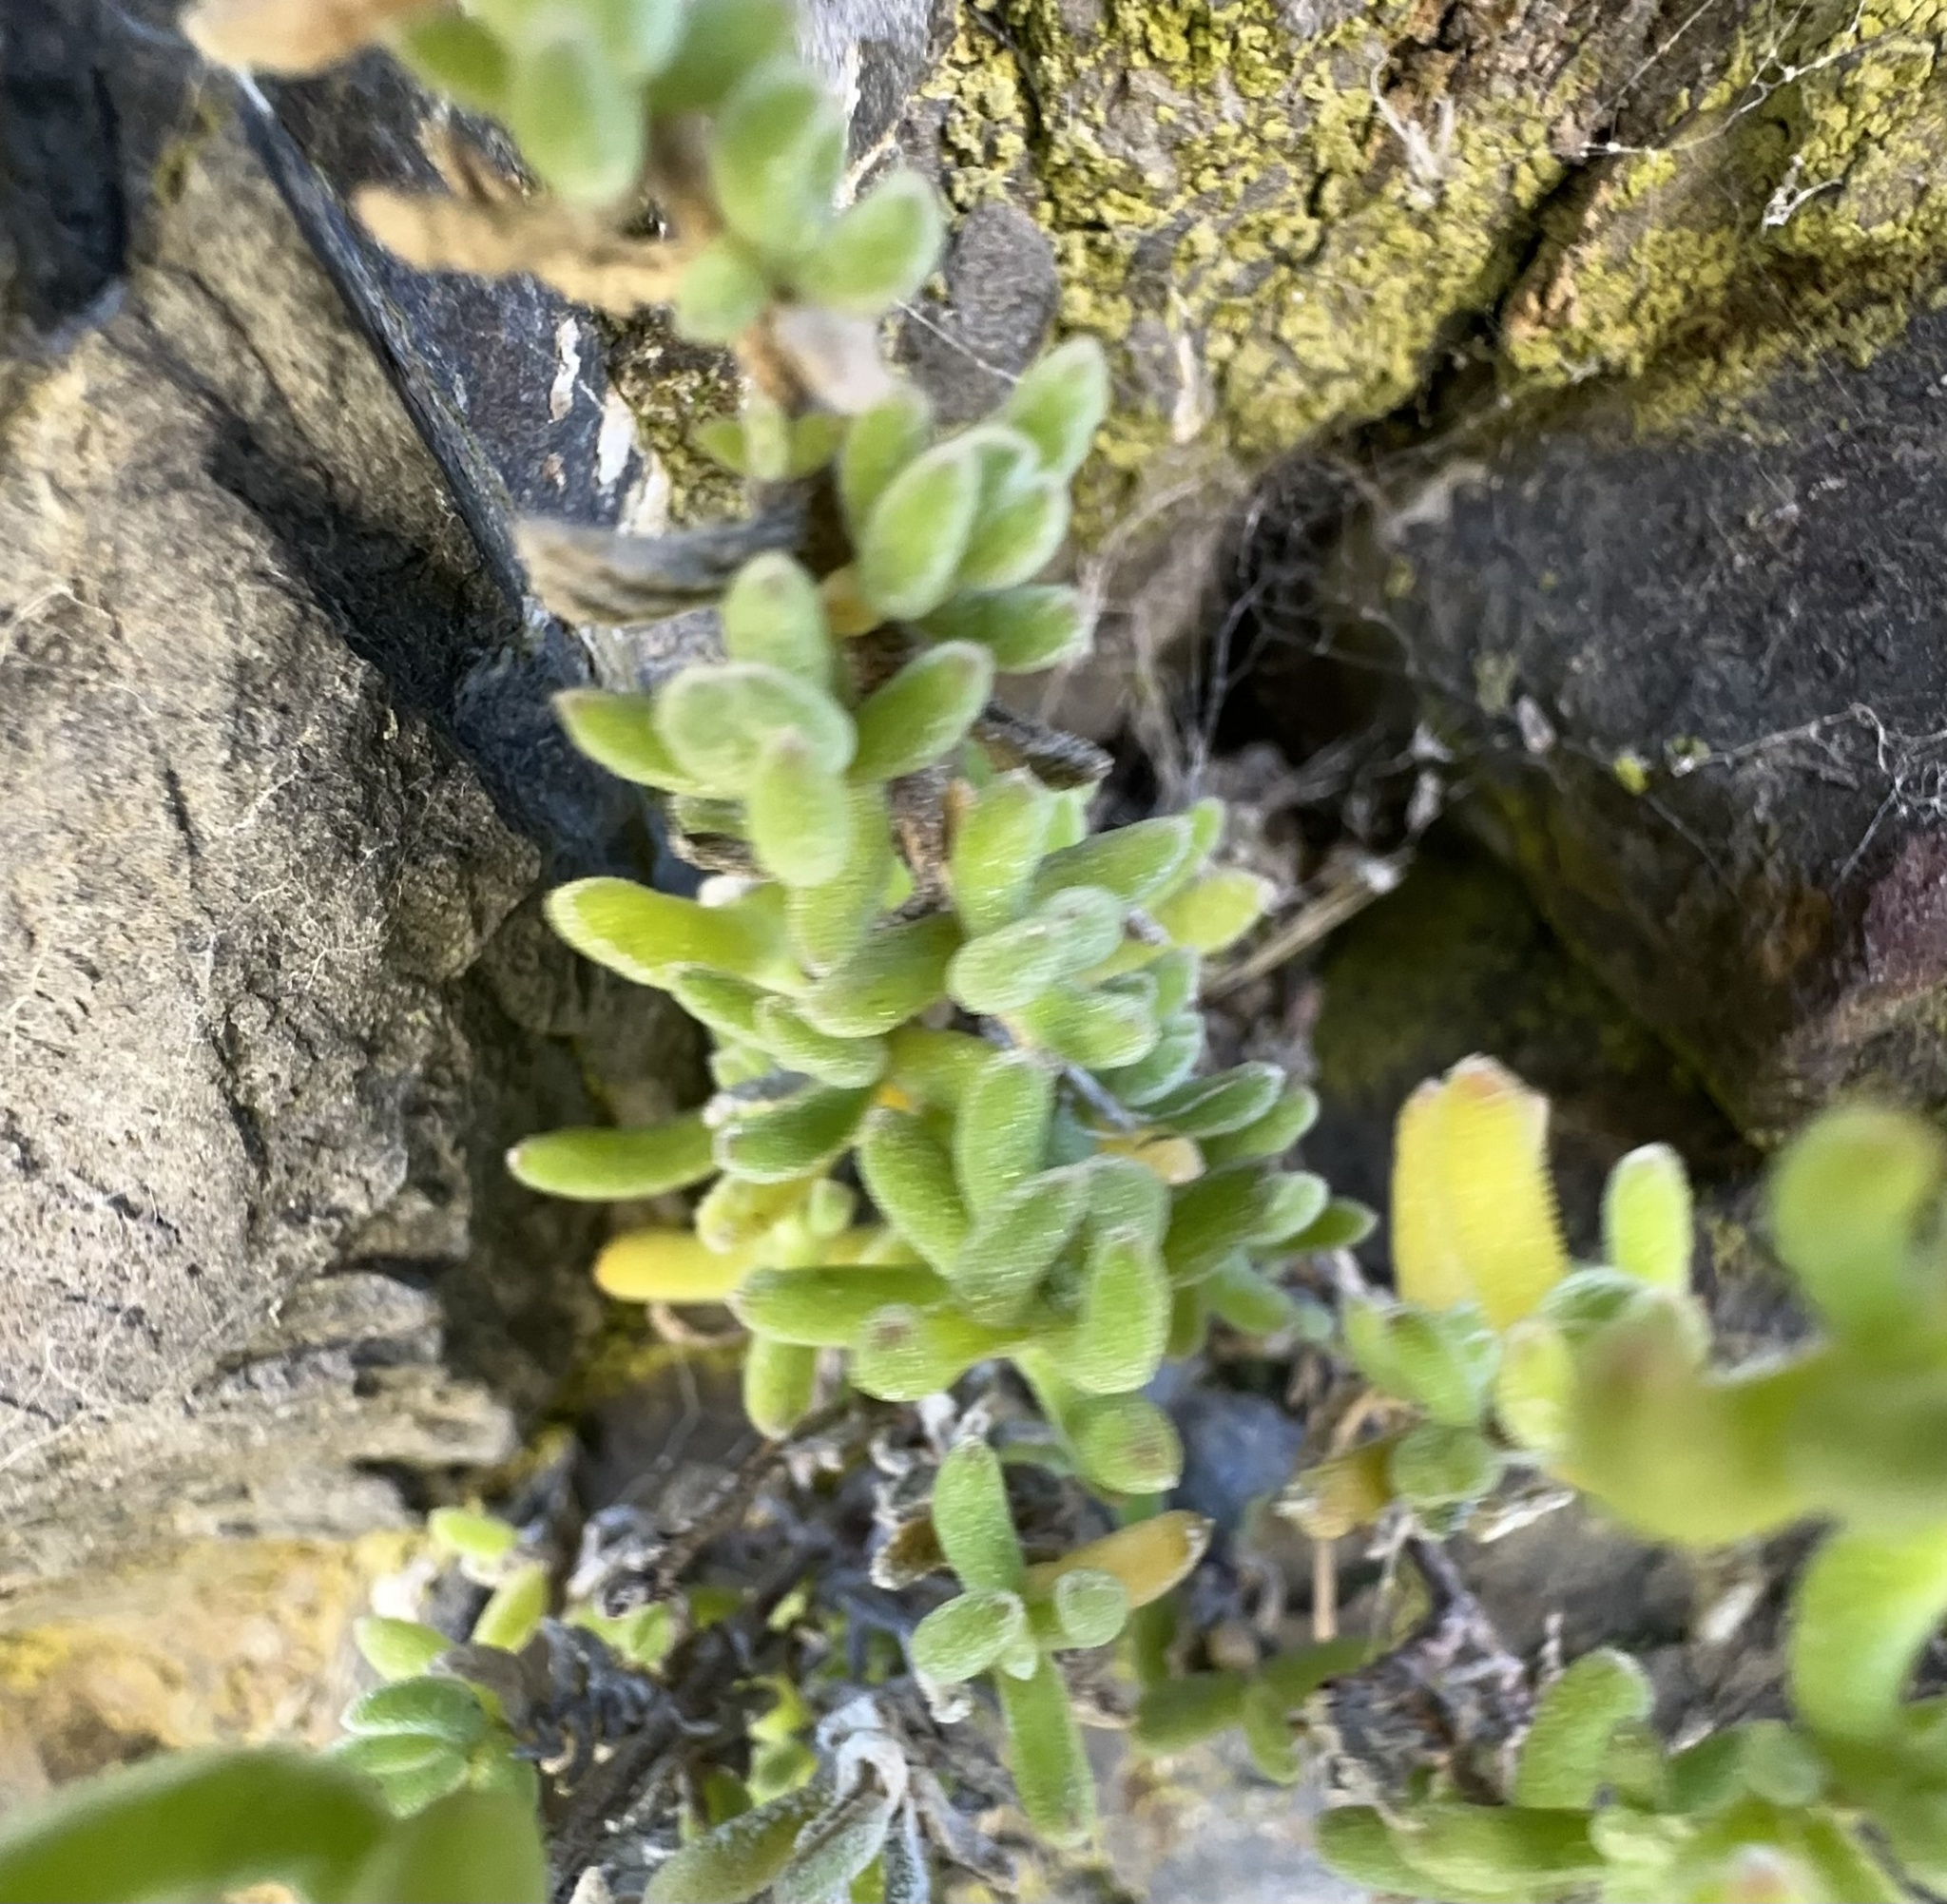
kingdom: Plantae
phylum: Tracheophyta
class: Magnoliopsida
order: Caryophyllales
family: Aizoaceae
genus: Drosanthemum
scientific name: Drosanthemum floribundum
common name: Pale dewplant
